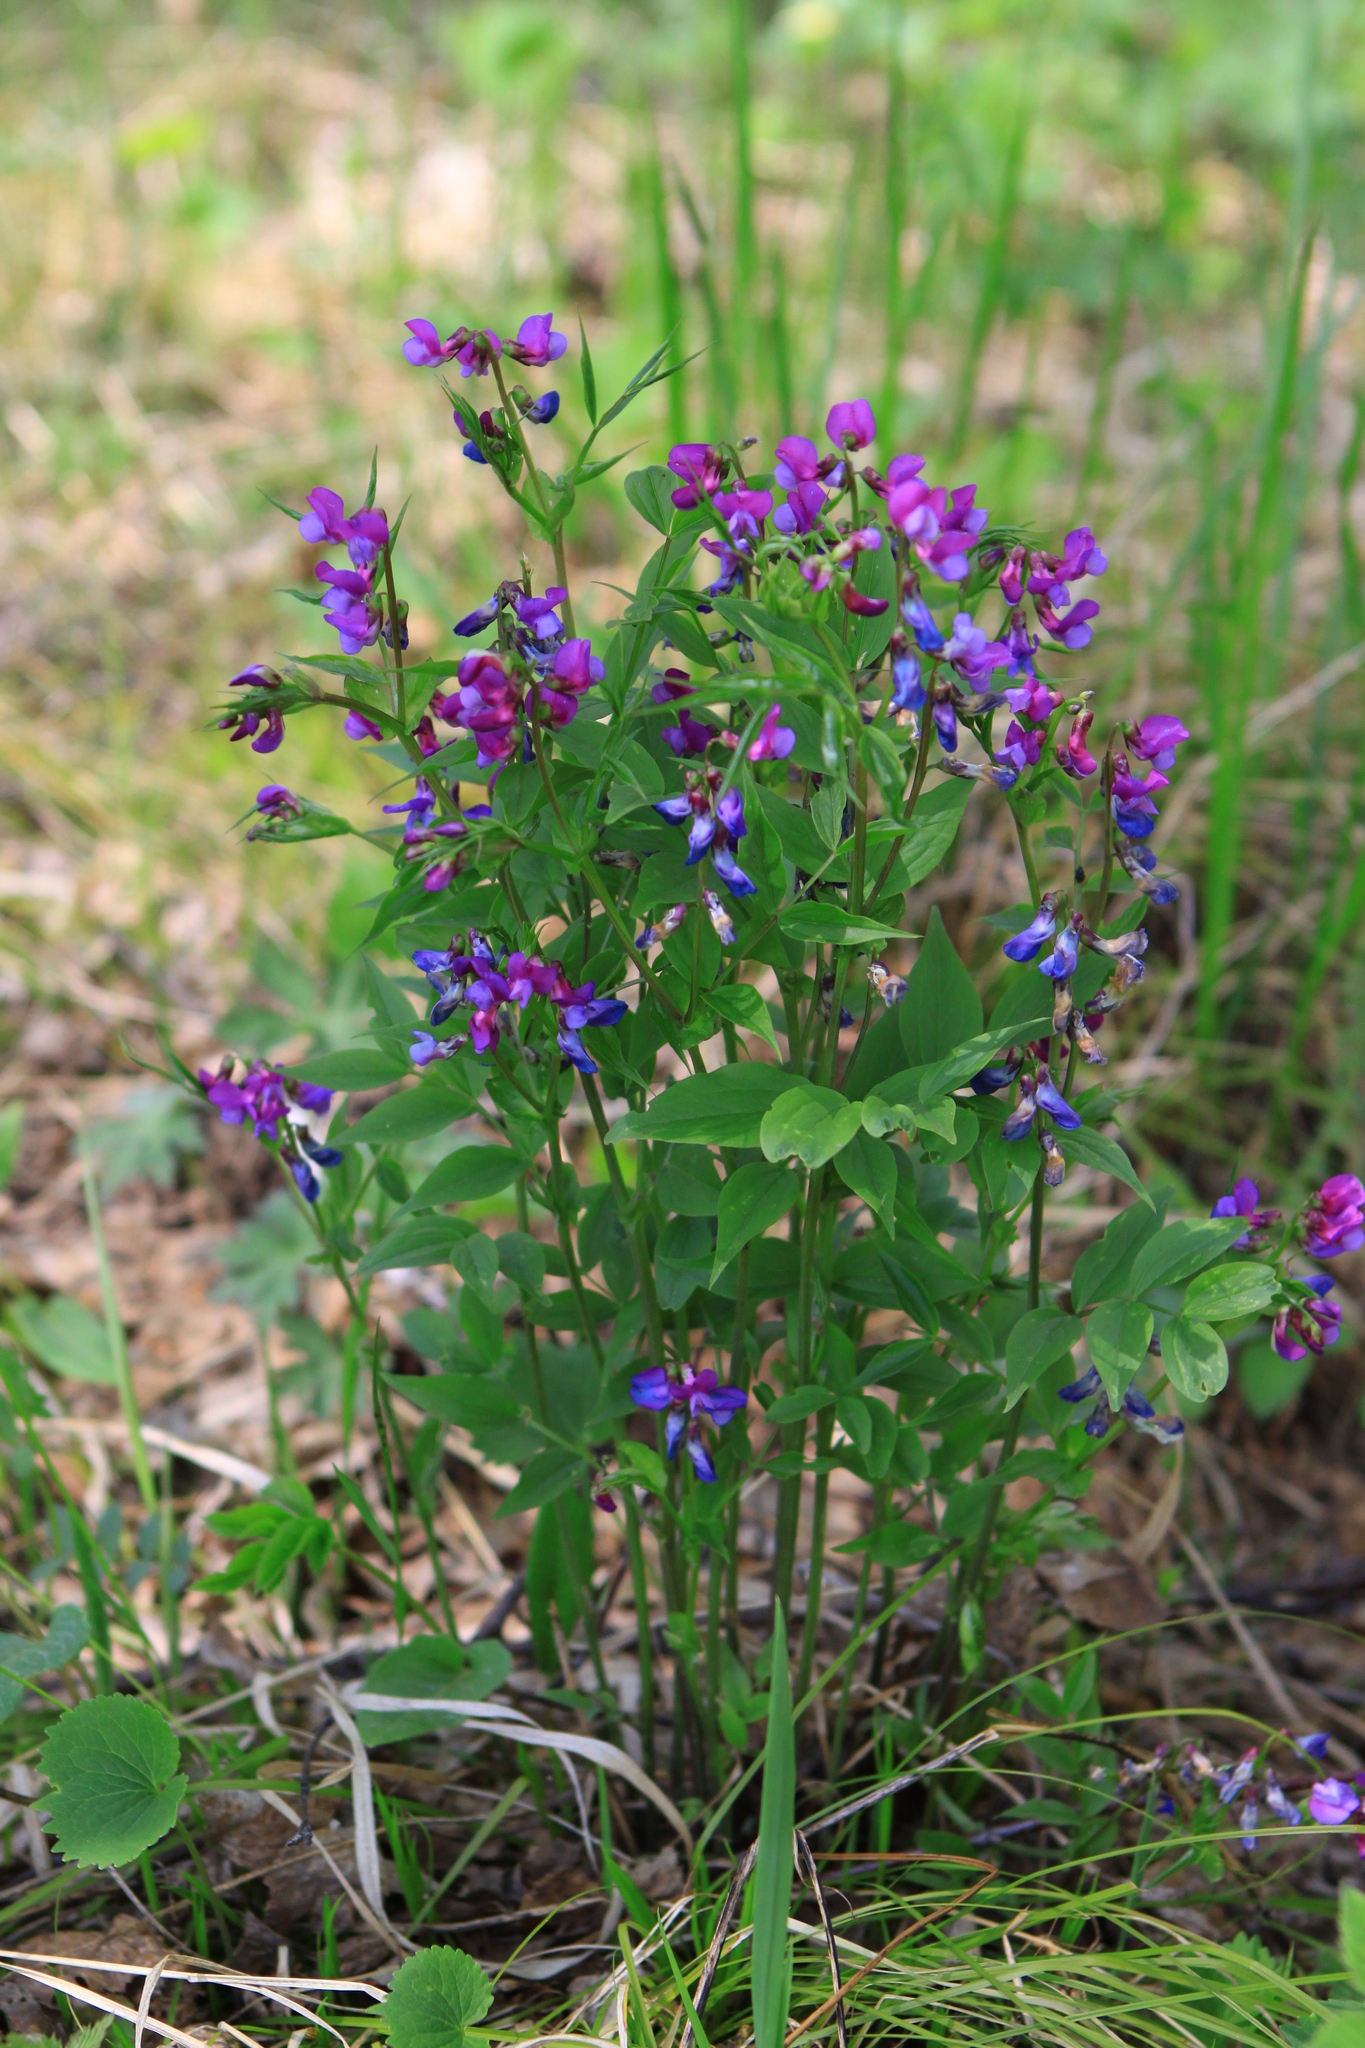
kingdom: Plantae
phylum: Tracheophyta
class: Magnoliopsida
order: Fabales
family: Fabaceae
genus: Lathyrus
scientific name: Lathyrus vernus
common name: Spring pea
